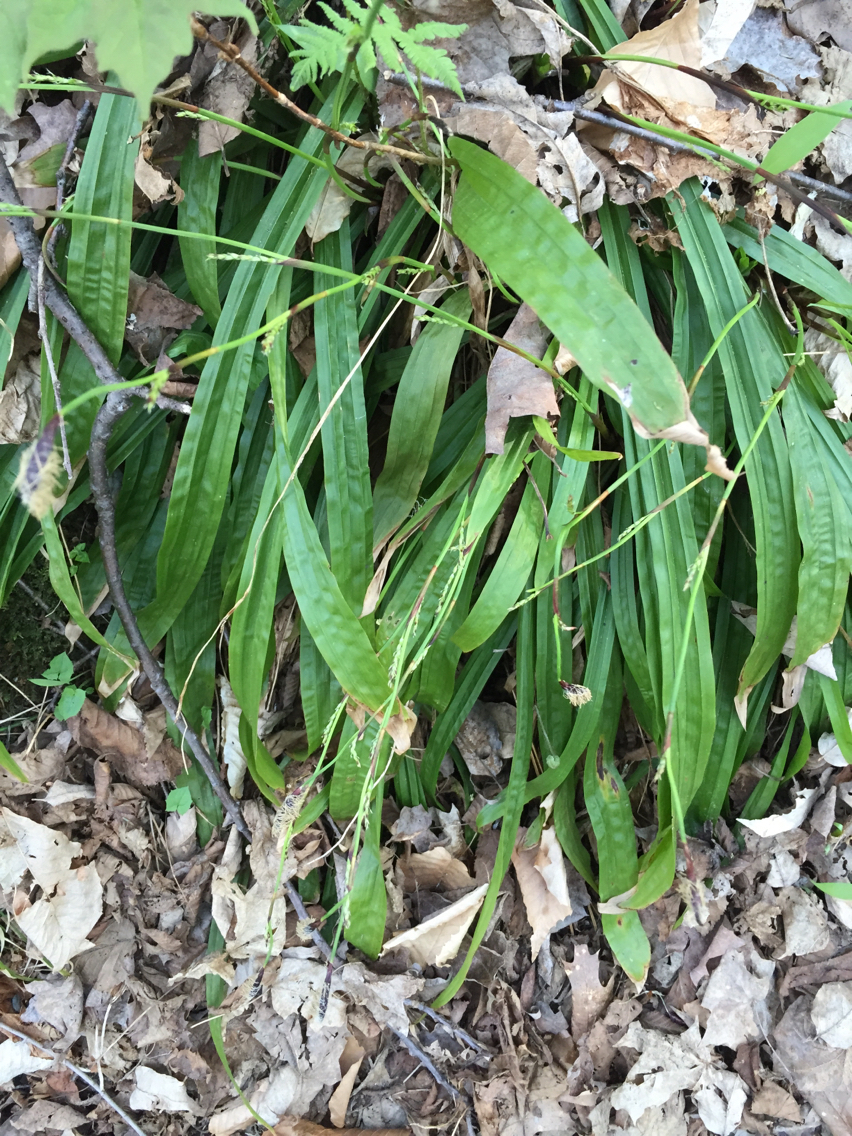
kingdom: Plantae
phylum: Tracheophyta
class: Liliopsida
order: Poales
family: Cyperaceae
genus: Carex
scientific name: Carex plantaginea
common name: Plantain-leaved sedge
